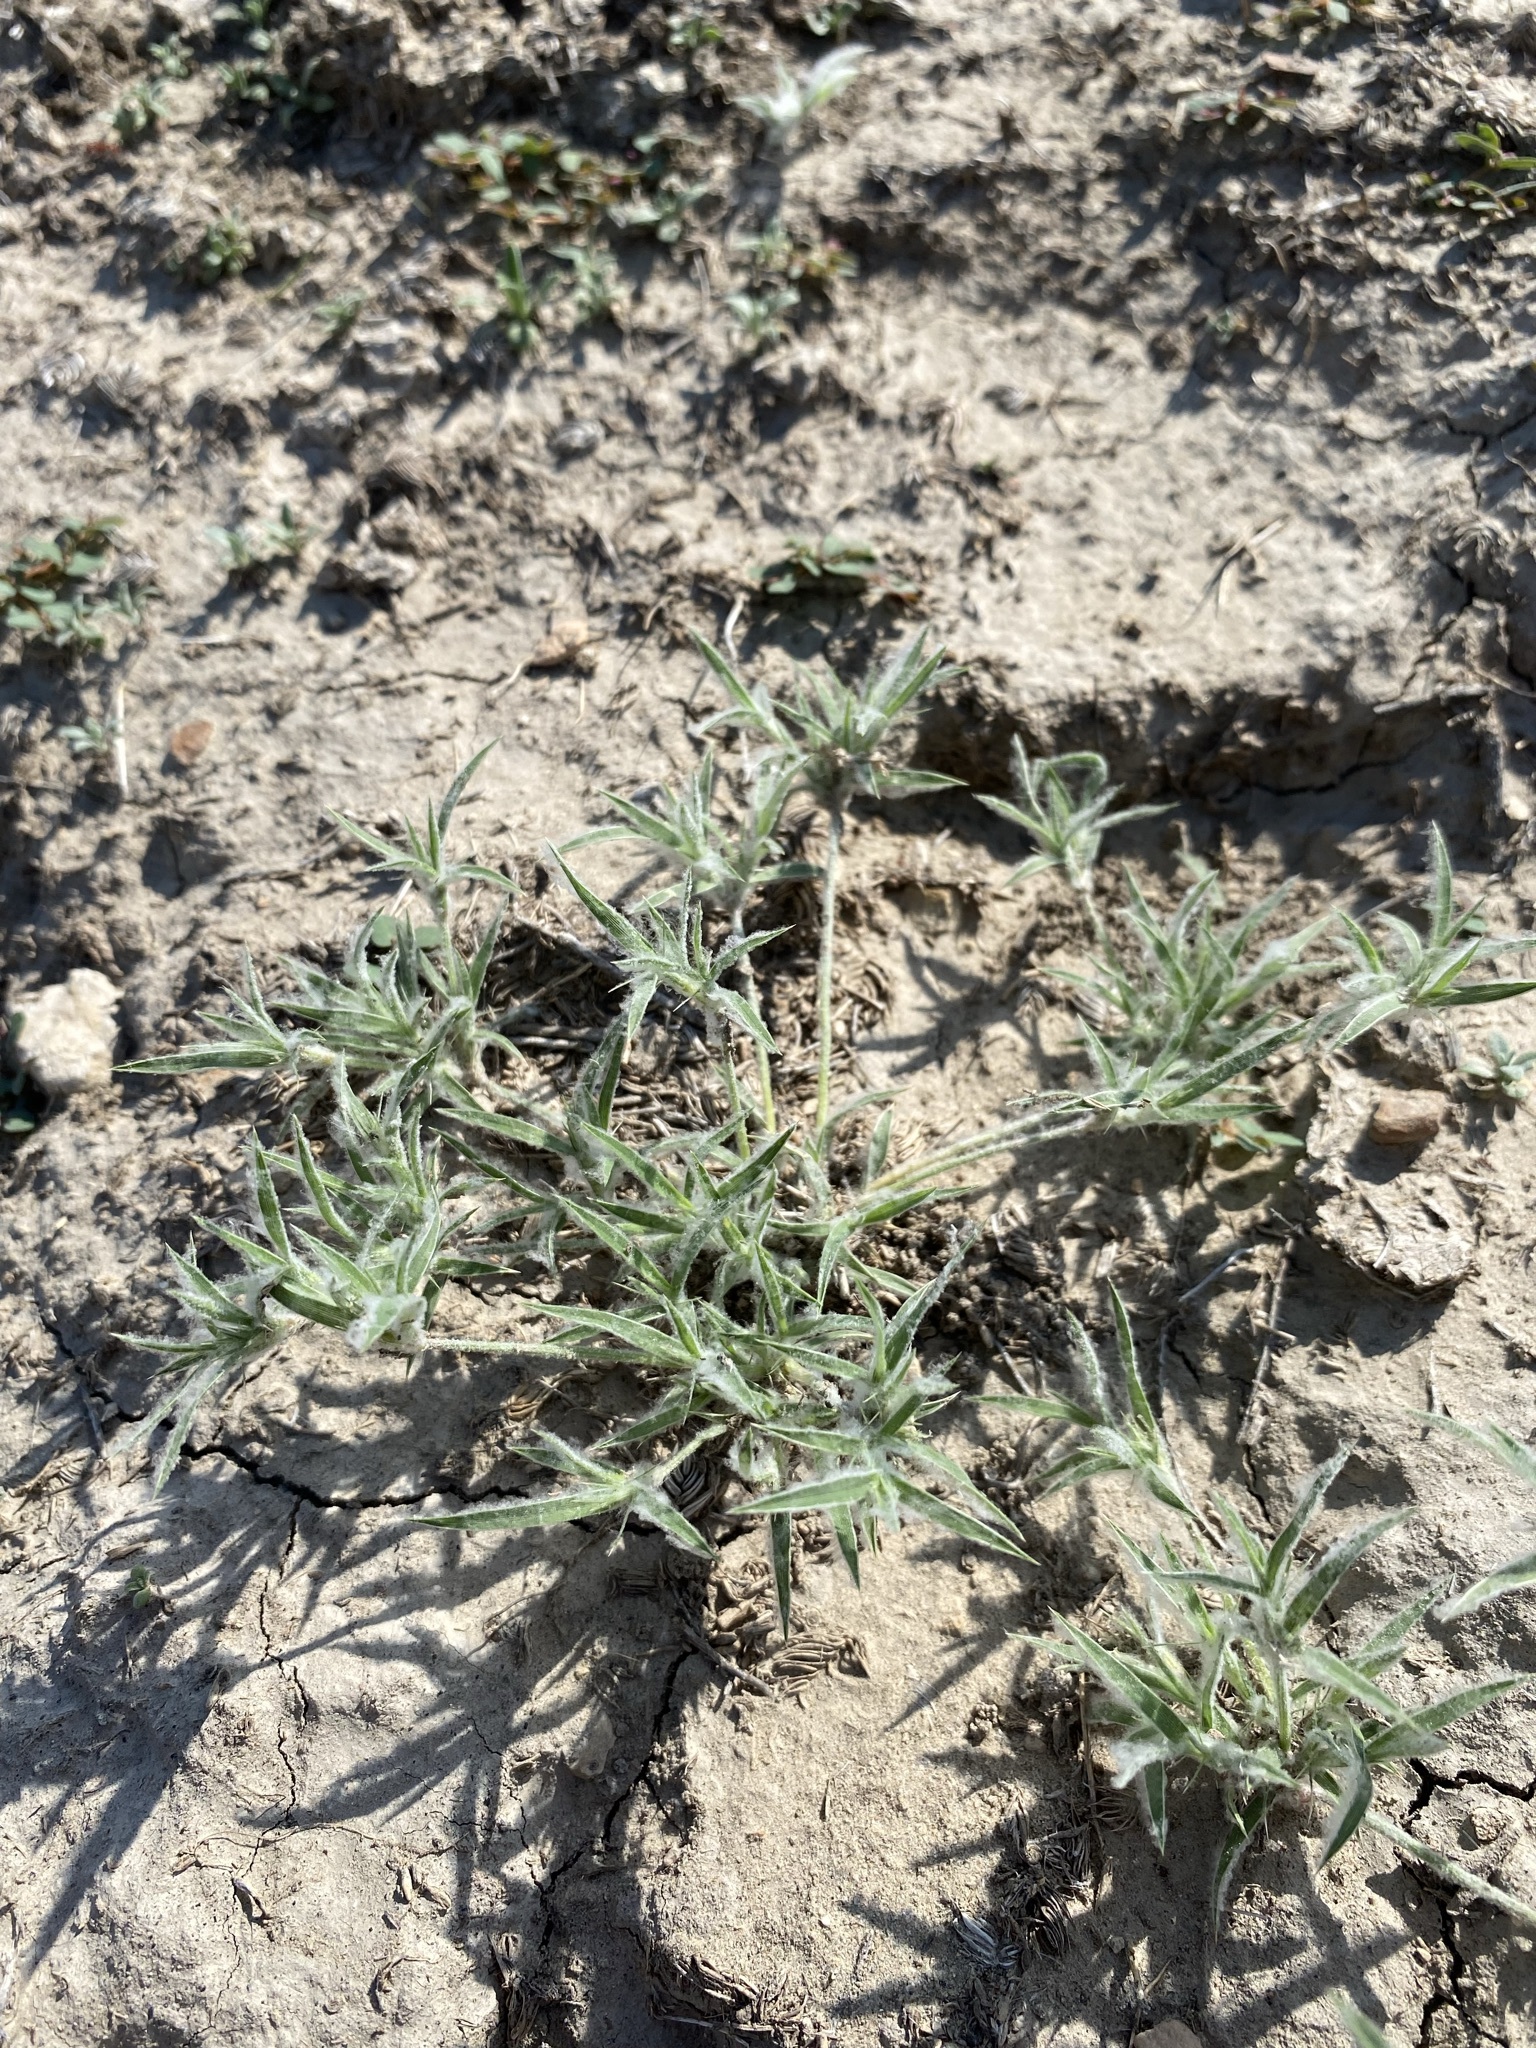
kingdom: Plantae
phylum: Tracheophyta
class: Liliopsida
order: Poales
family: Poaceae
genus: Munroa
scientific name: Munroa squarrosa
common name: False buffalo grass
